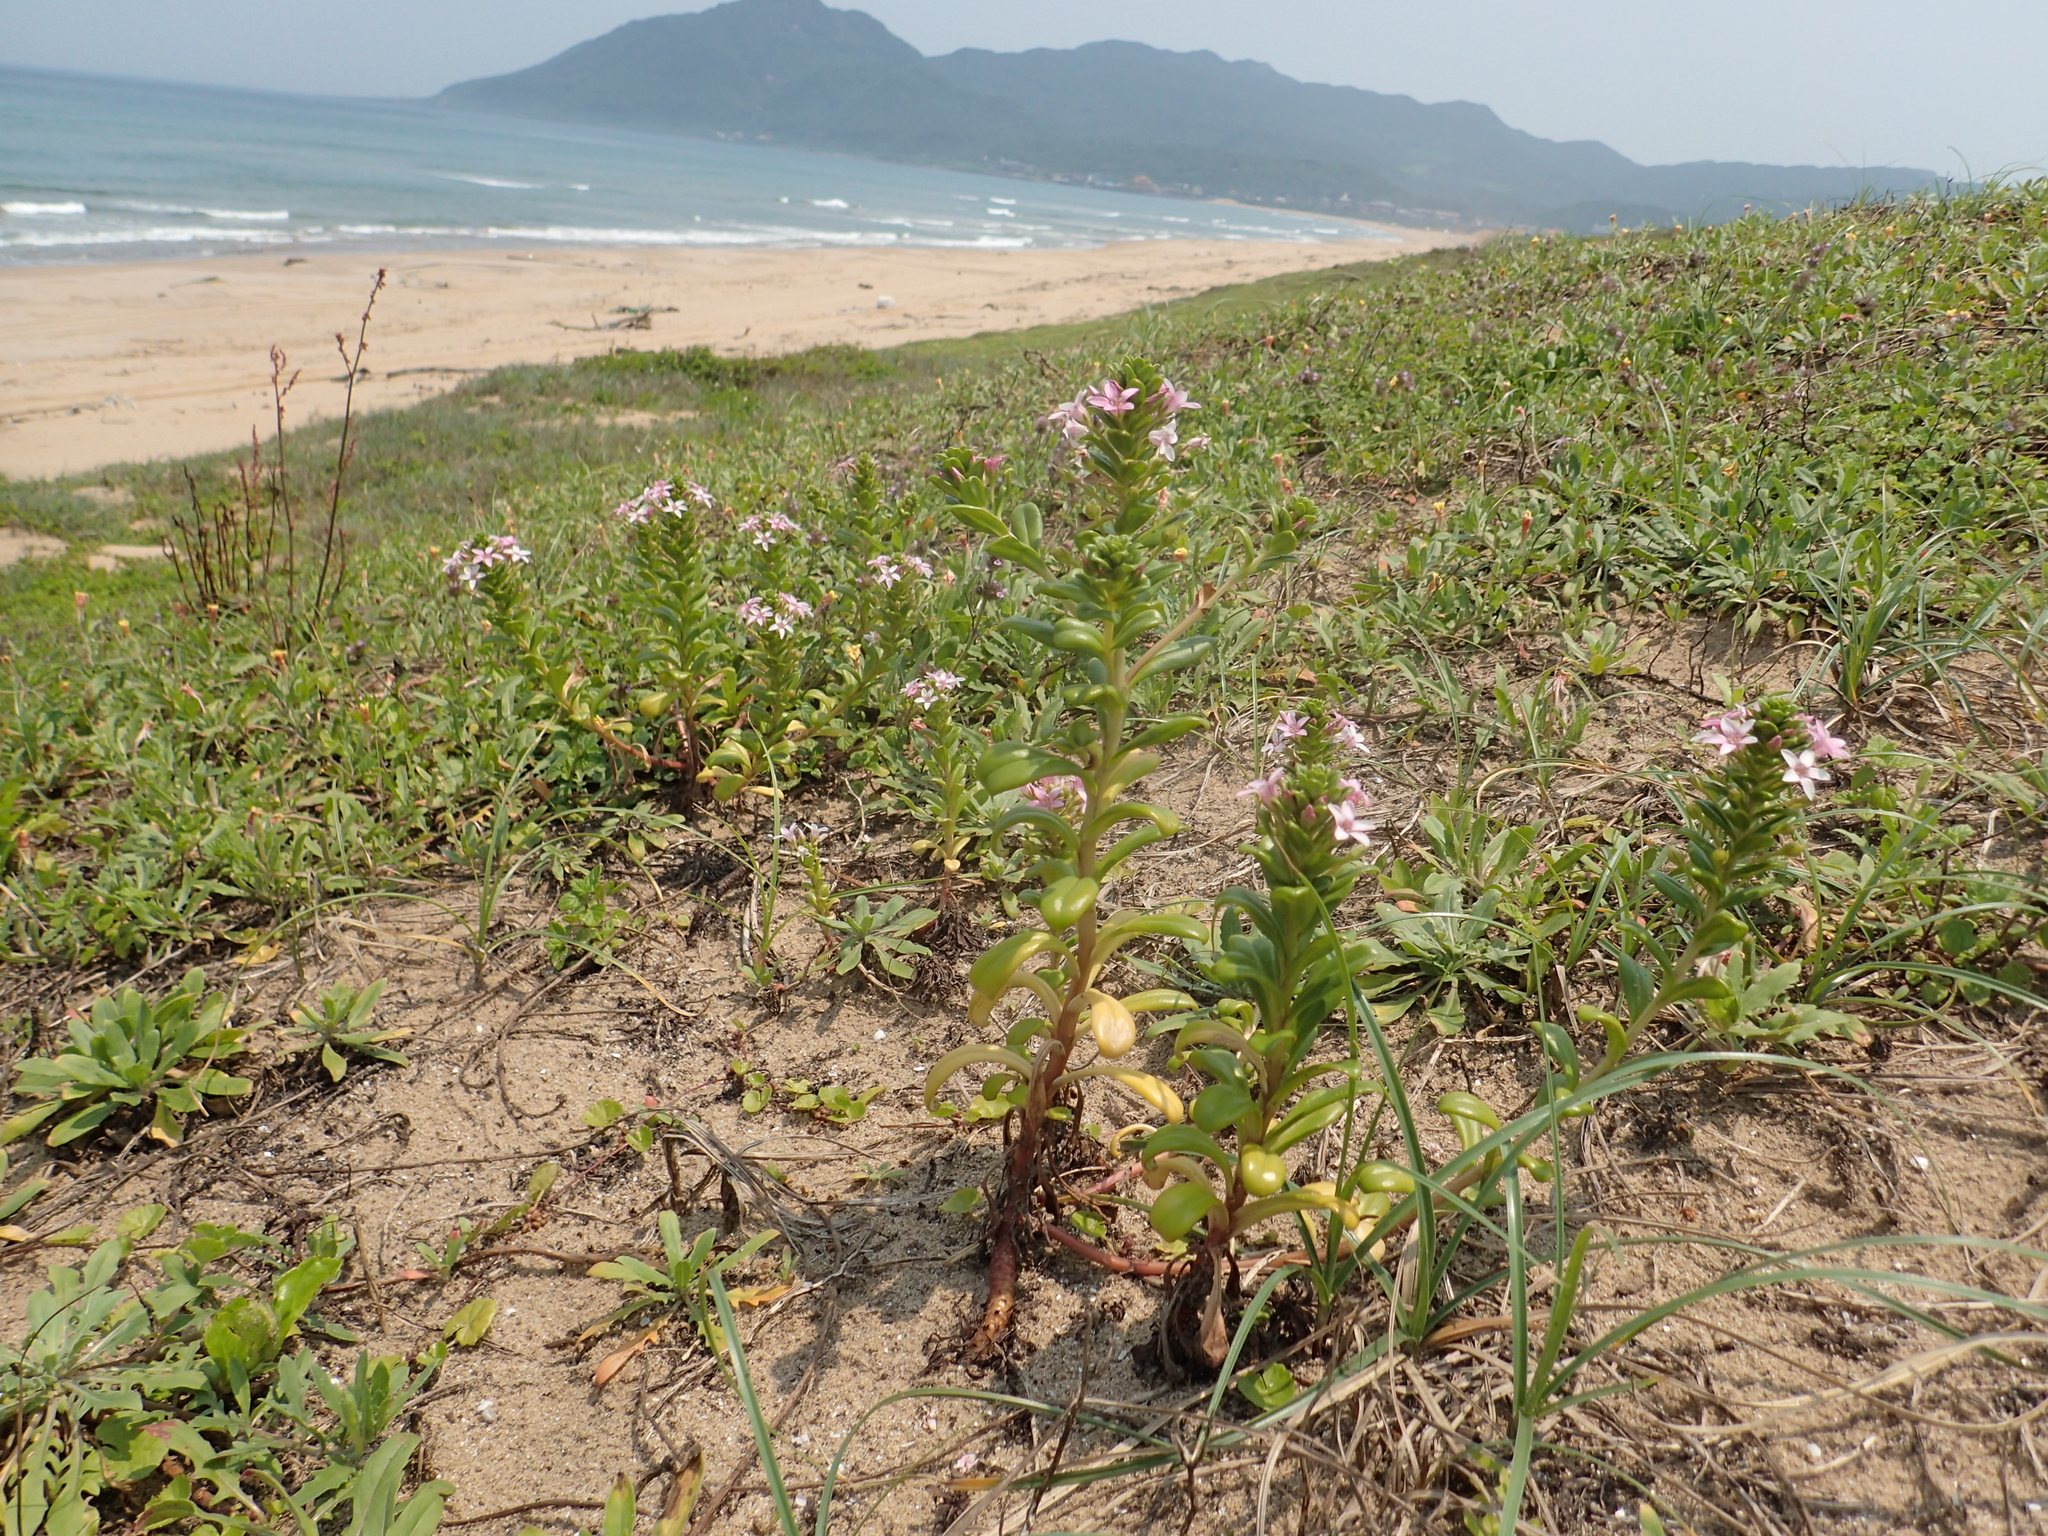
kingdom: Plantae
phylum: Tracheophyta
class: Magnoliopsida
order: Ericales
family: Primulaceae
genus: Lysimachia
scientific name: Lysimachia mauritiana
